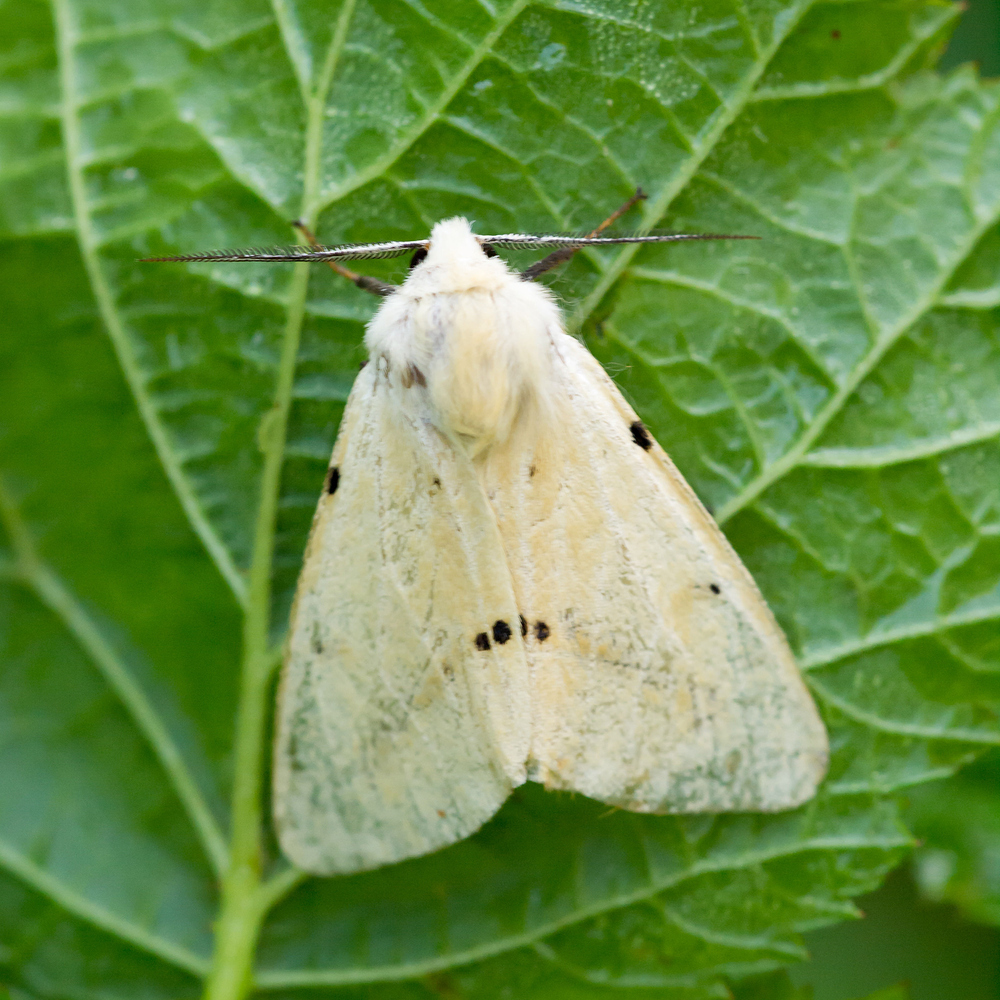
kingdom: Animalia
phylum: Arthropoda
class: Insecta
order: Lepidoptera
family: Erebidae
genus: Spilarctia
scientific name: Spilarctia lutea
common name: Buff ermine
